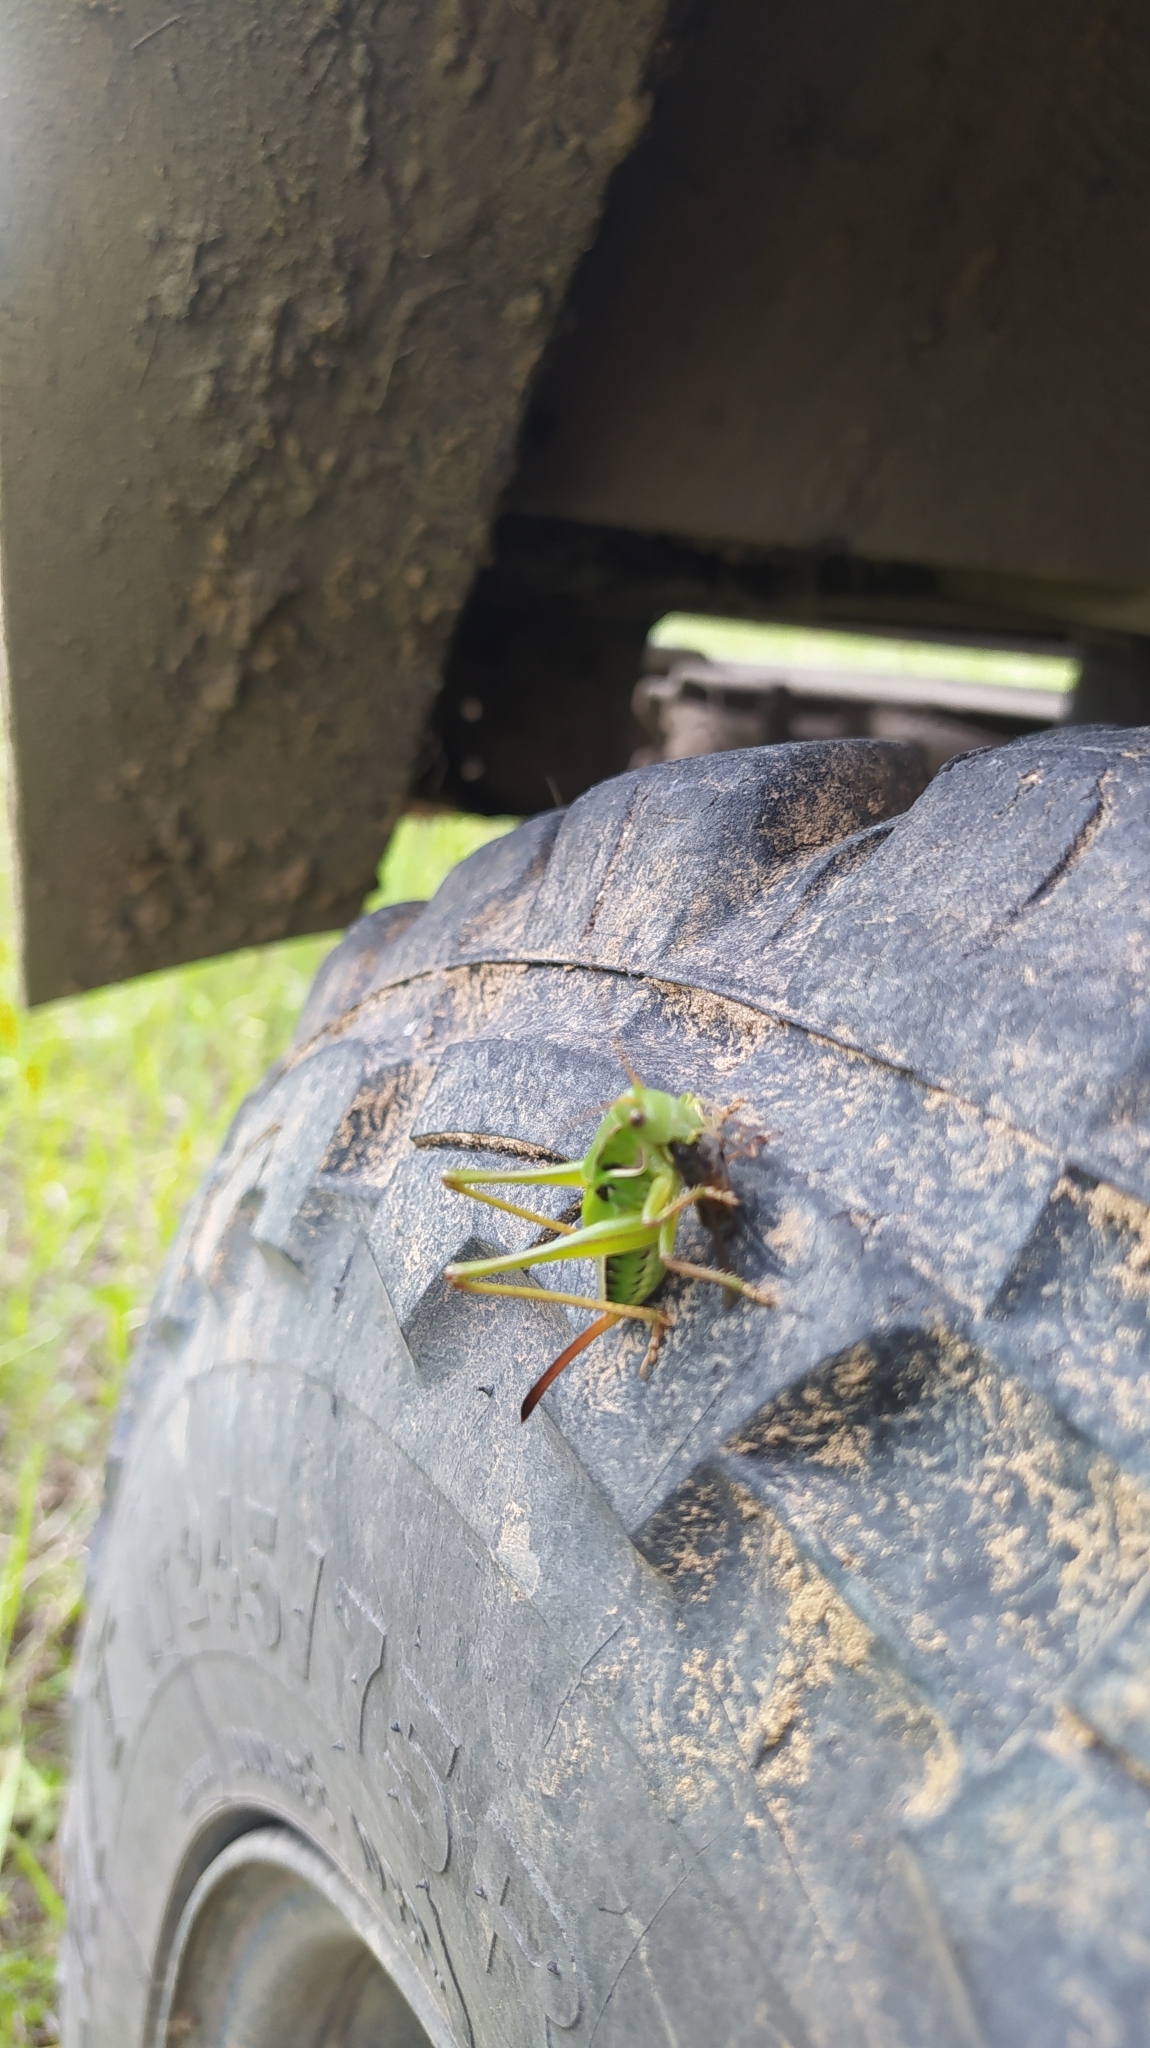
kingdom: Animalia
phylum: Arthropoda
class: Insecta
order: Orthoptera
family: Tettigoniidae
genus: Gampsocleis
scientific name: Gampsocleis sedakovii
